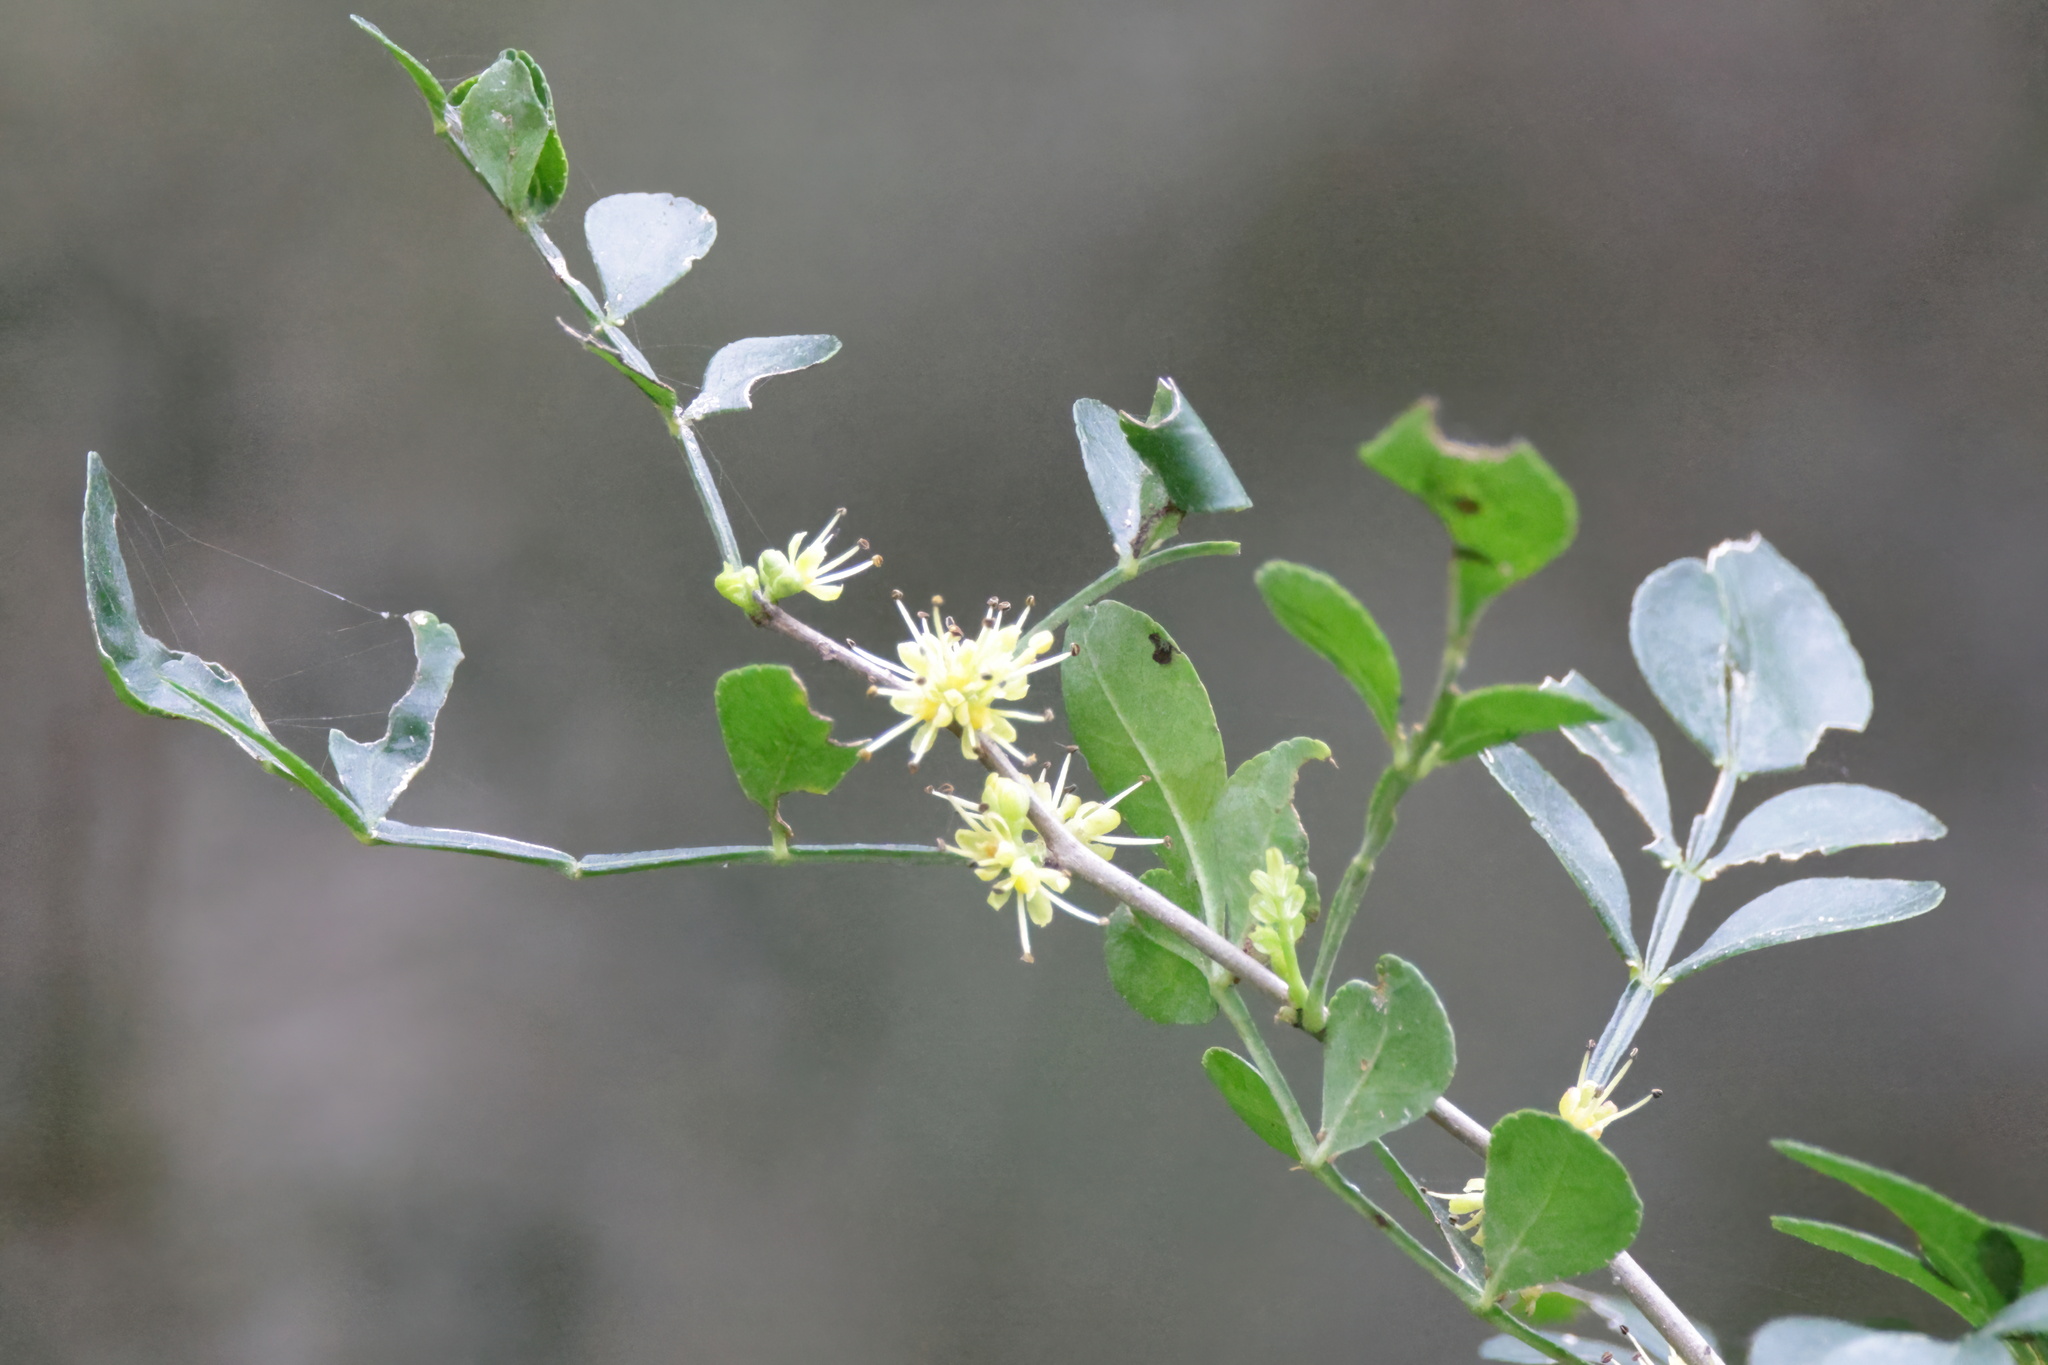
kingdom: Plantae
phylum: Tracheophyta
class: Magnoliopsida
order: Sapindales
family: Rutaceae
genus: Zanthoxylum
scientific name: Zanthoxylum fagara
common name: Lime prickly-ash
